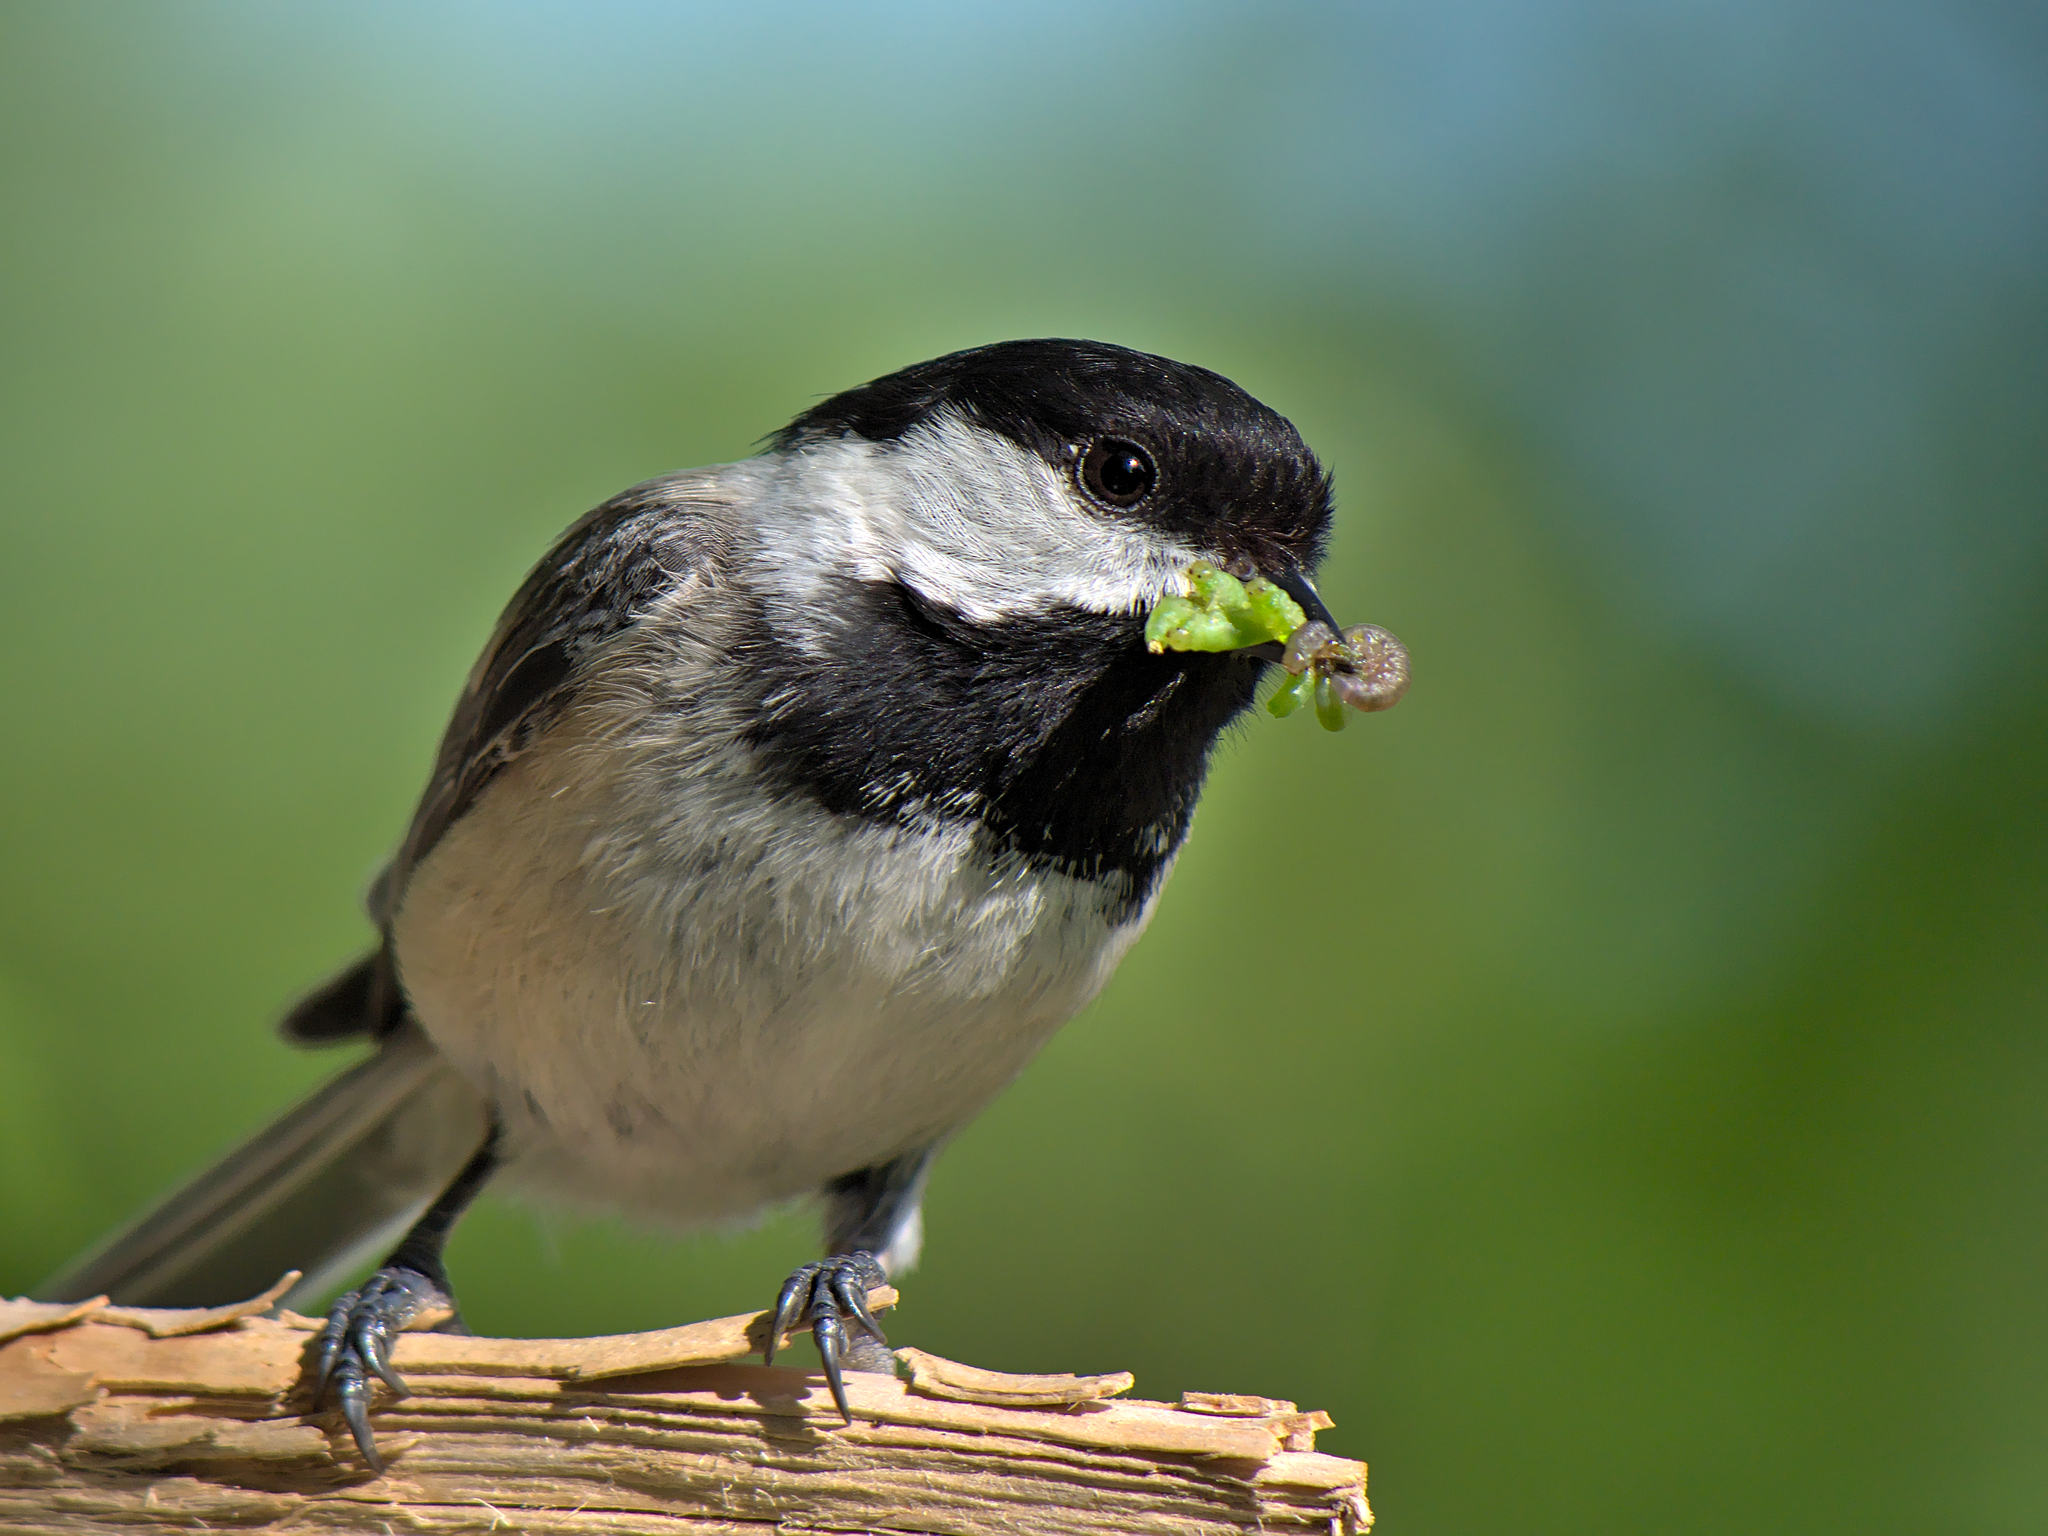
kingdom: Animalia
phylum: Chordata
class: Aves
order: Passeriformes
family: Paridae
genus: Poecile
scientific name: Poecile atricapillus
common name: Black-capped chickadee
